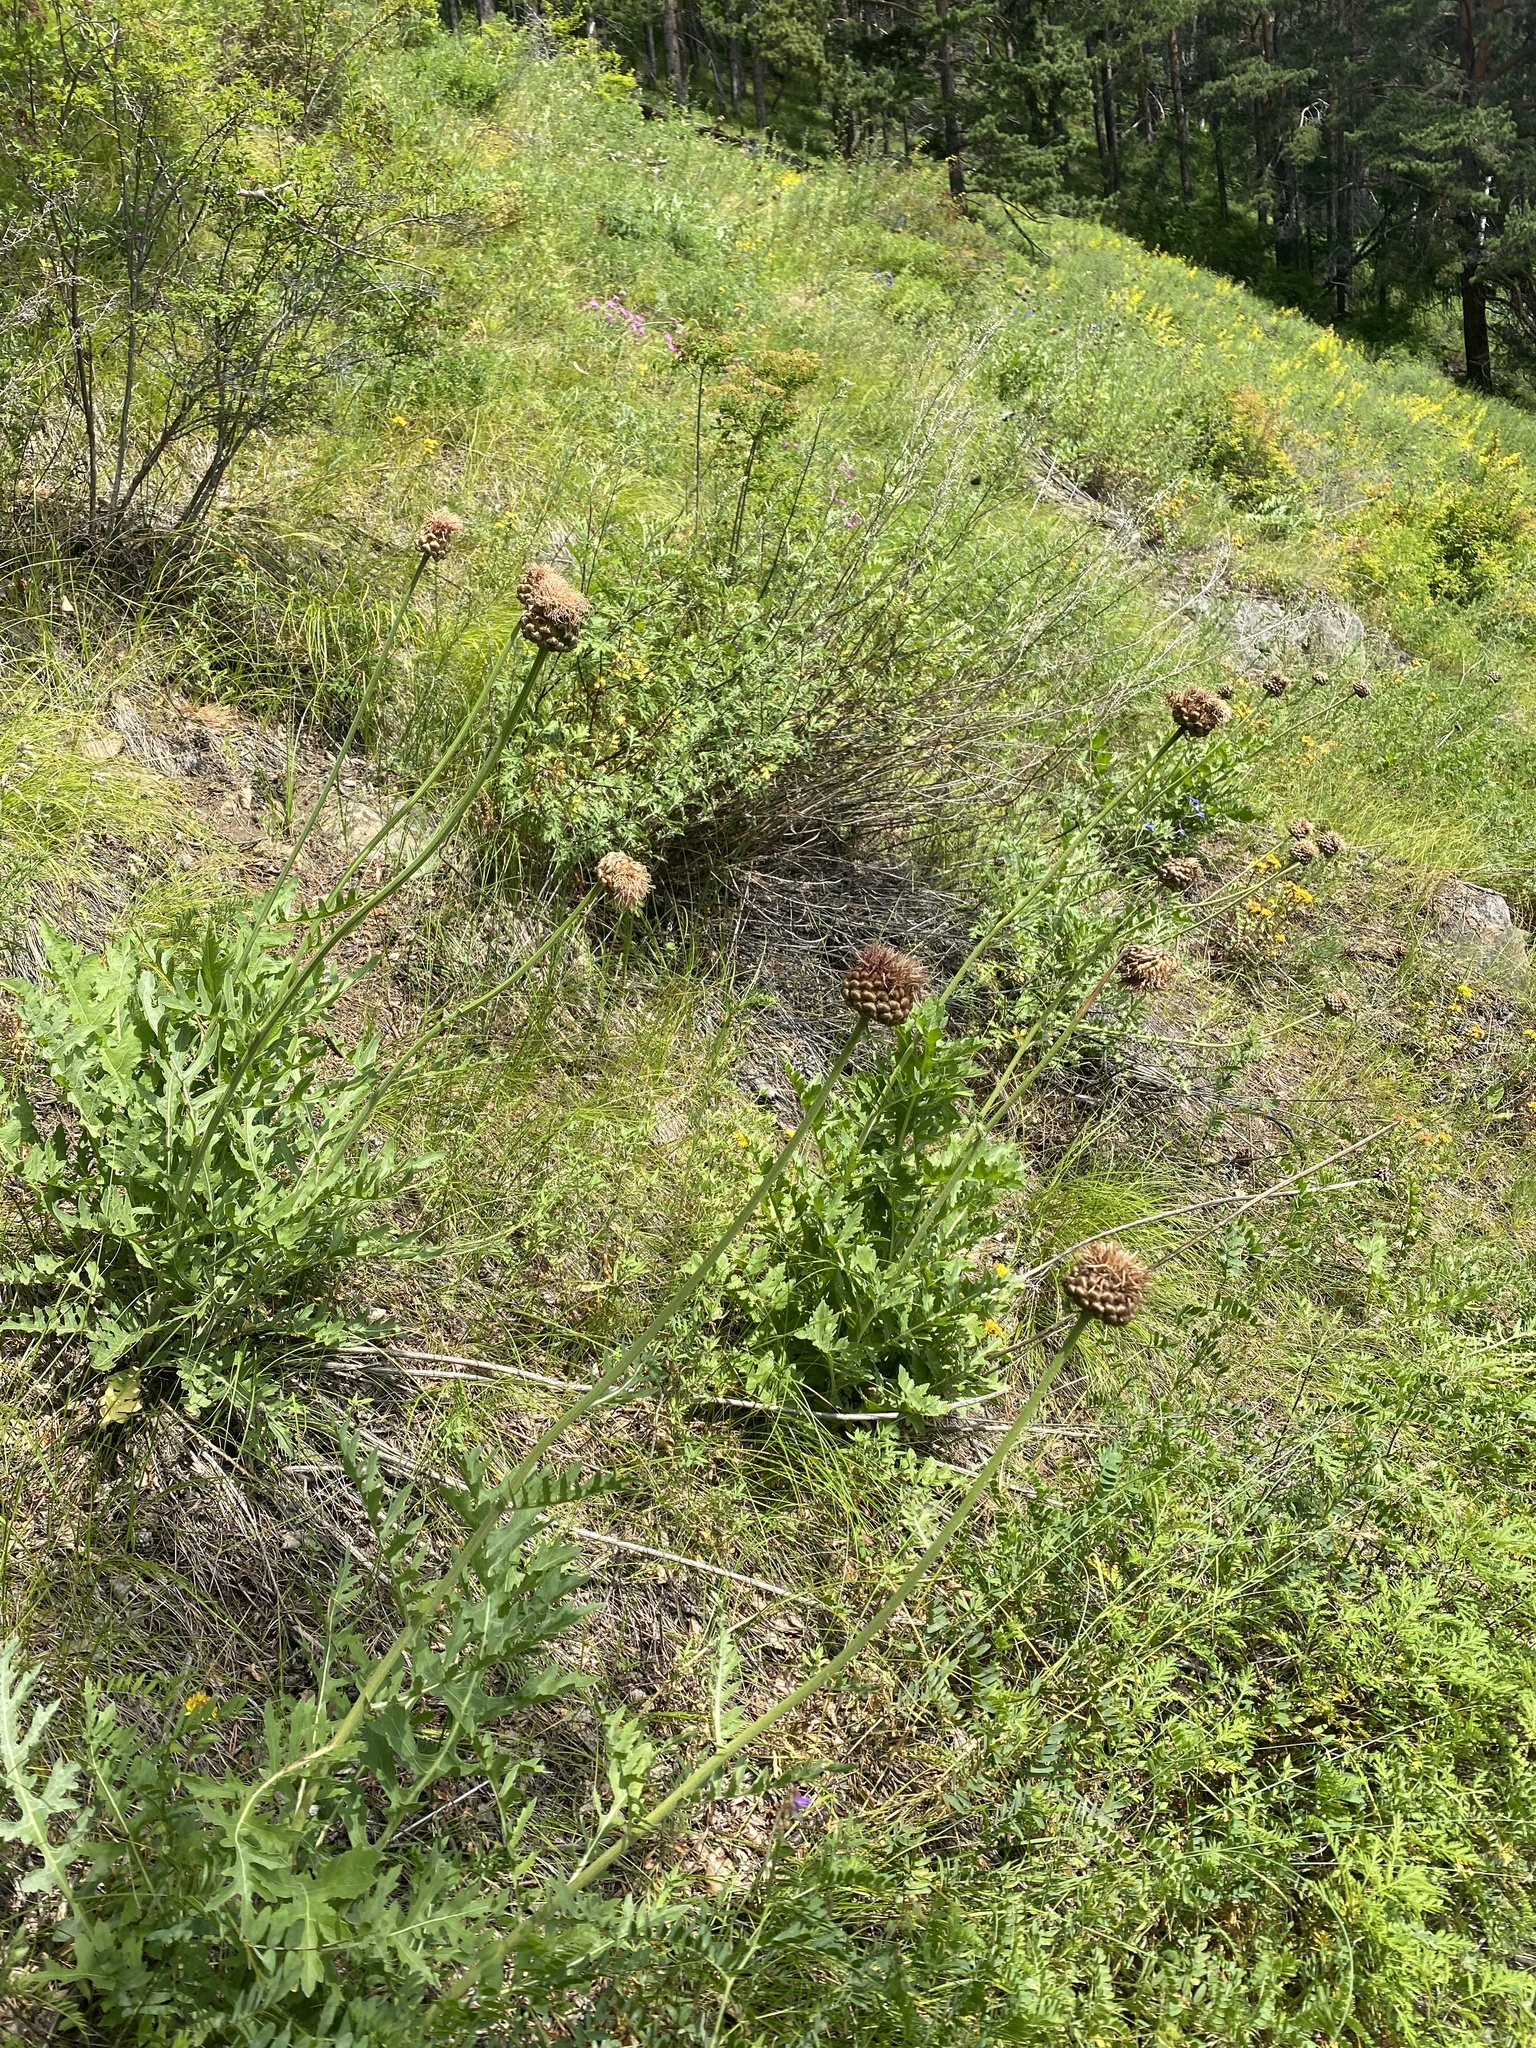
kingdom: Plantae
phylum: Tracheophyta
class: Magnoliopsida
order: Asterales
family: Asteraceae
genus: Leuzea
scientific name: Leuzea uniflora
